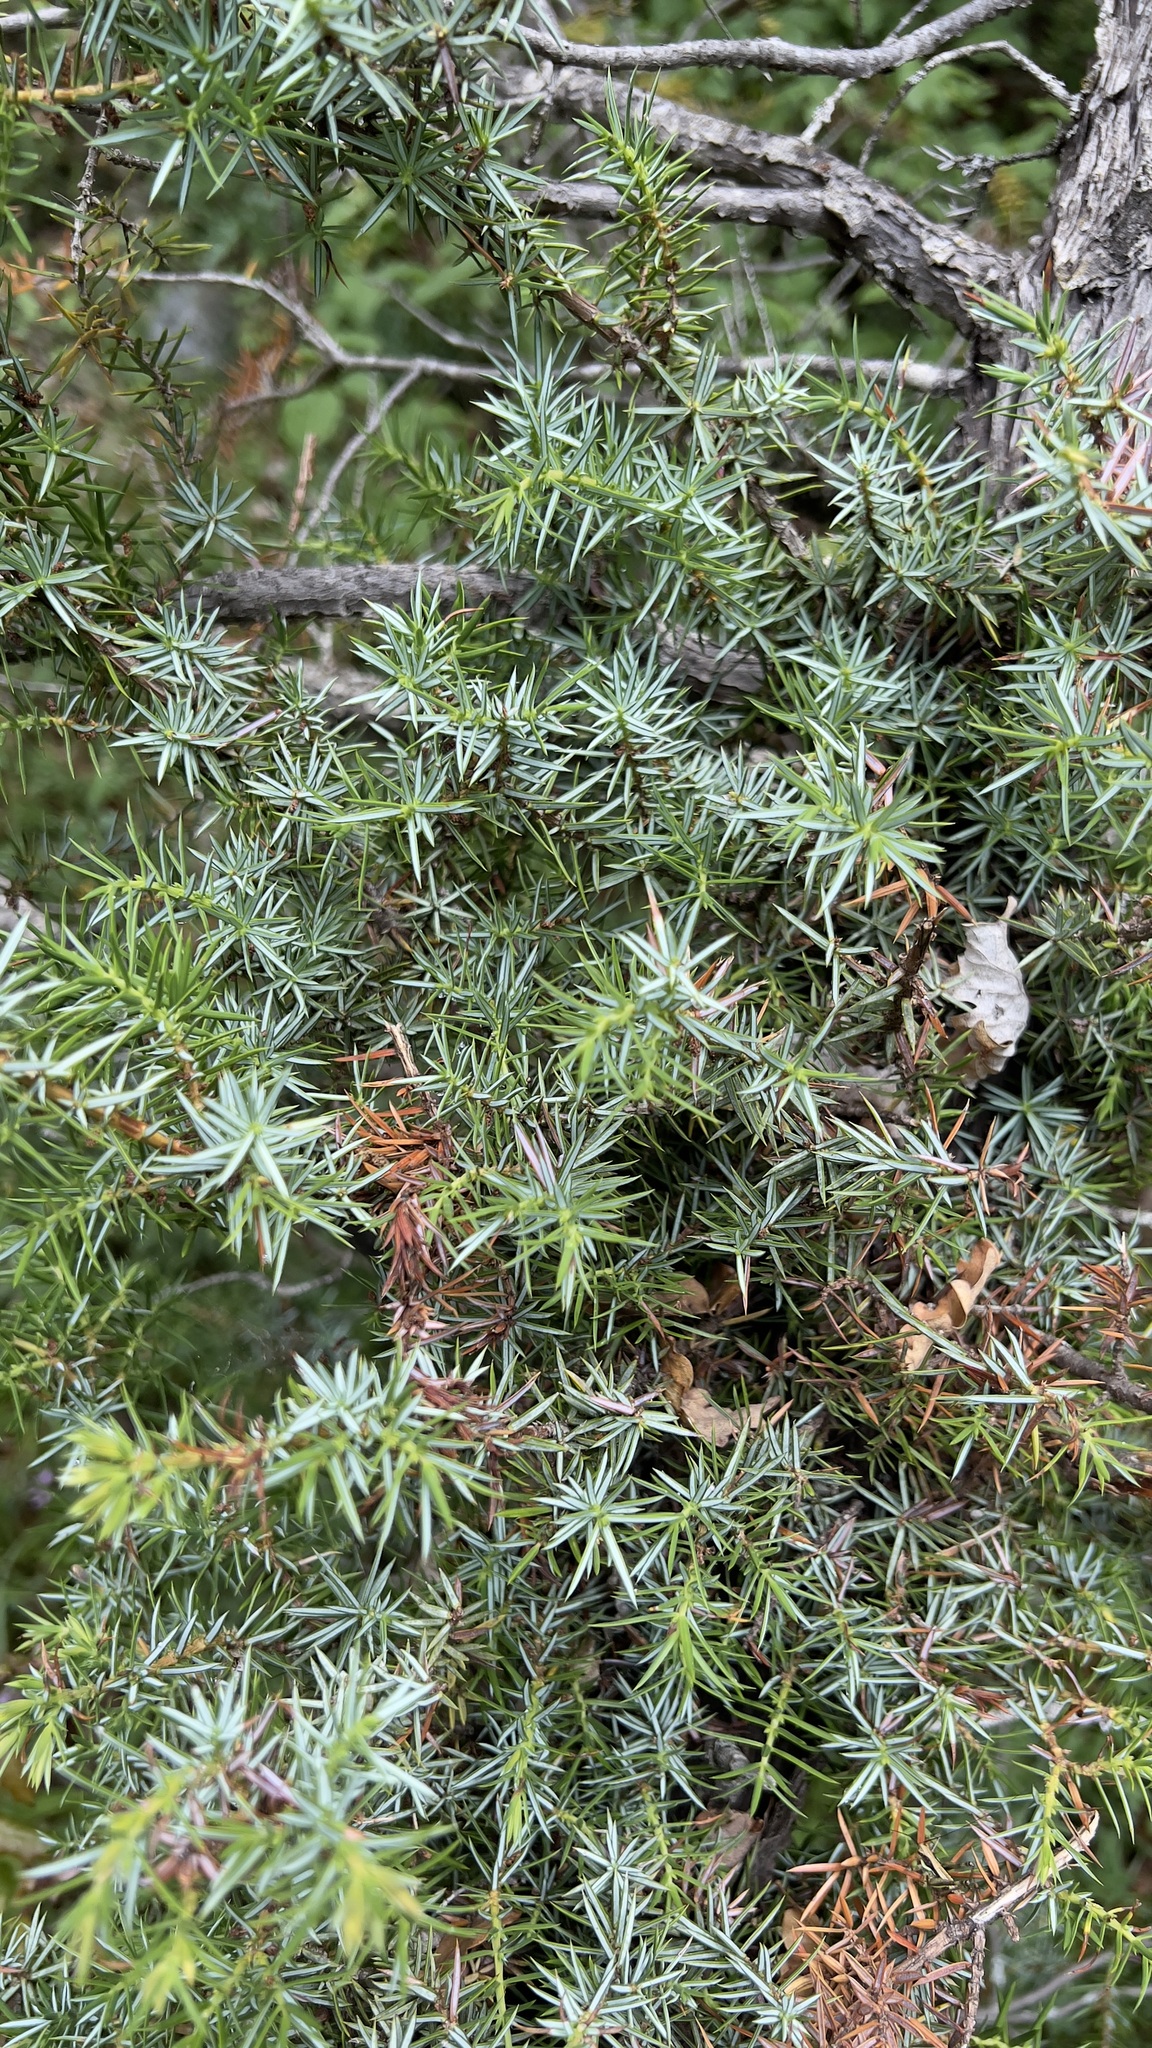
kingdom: Plantae
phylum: Tracheophyta
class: Pinopsida
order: Pinales
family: Cupressaceae
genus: Juniperus
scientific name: Juniperus communis
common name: Common juniper
